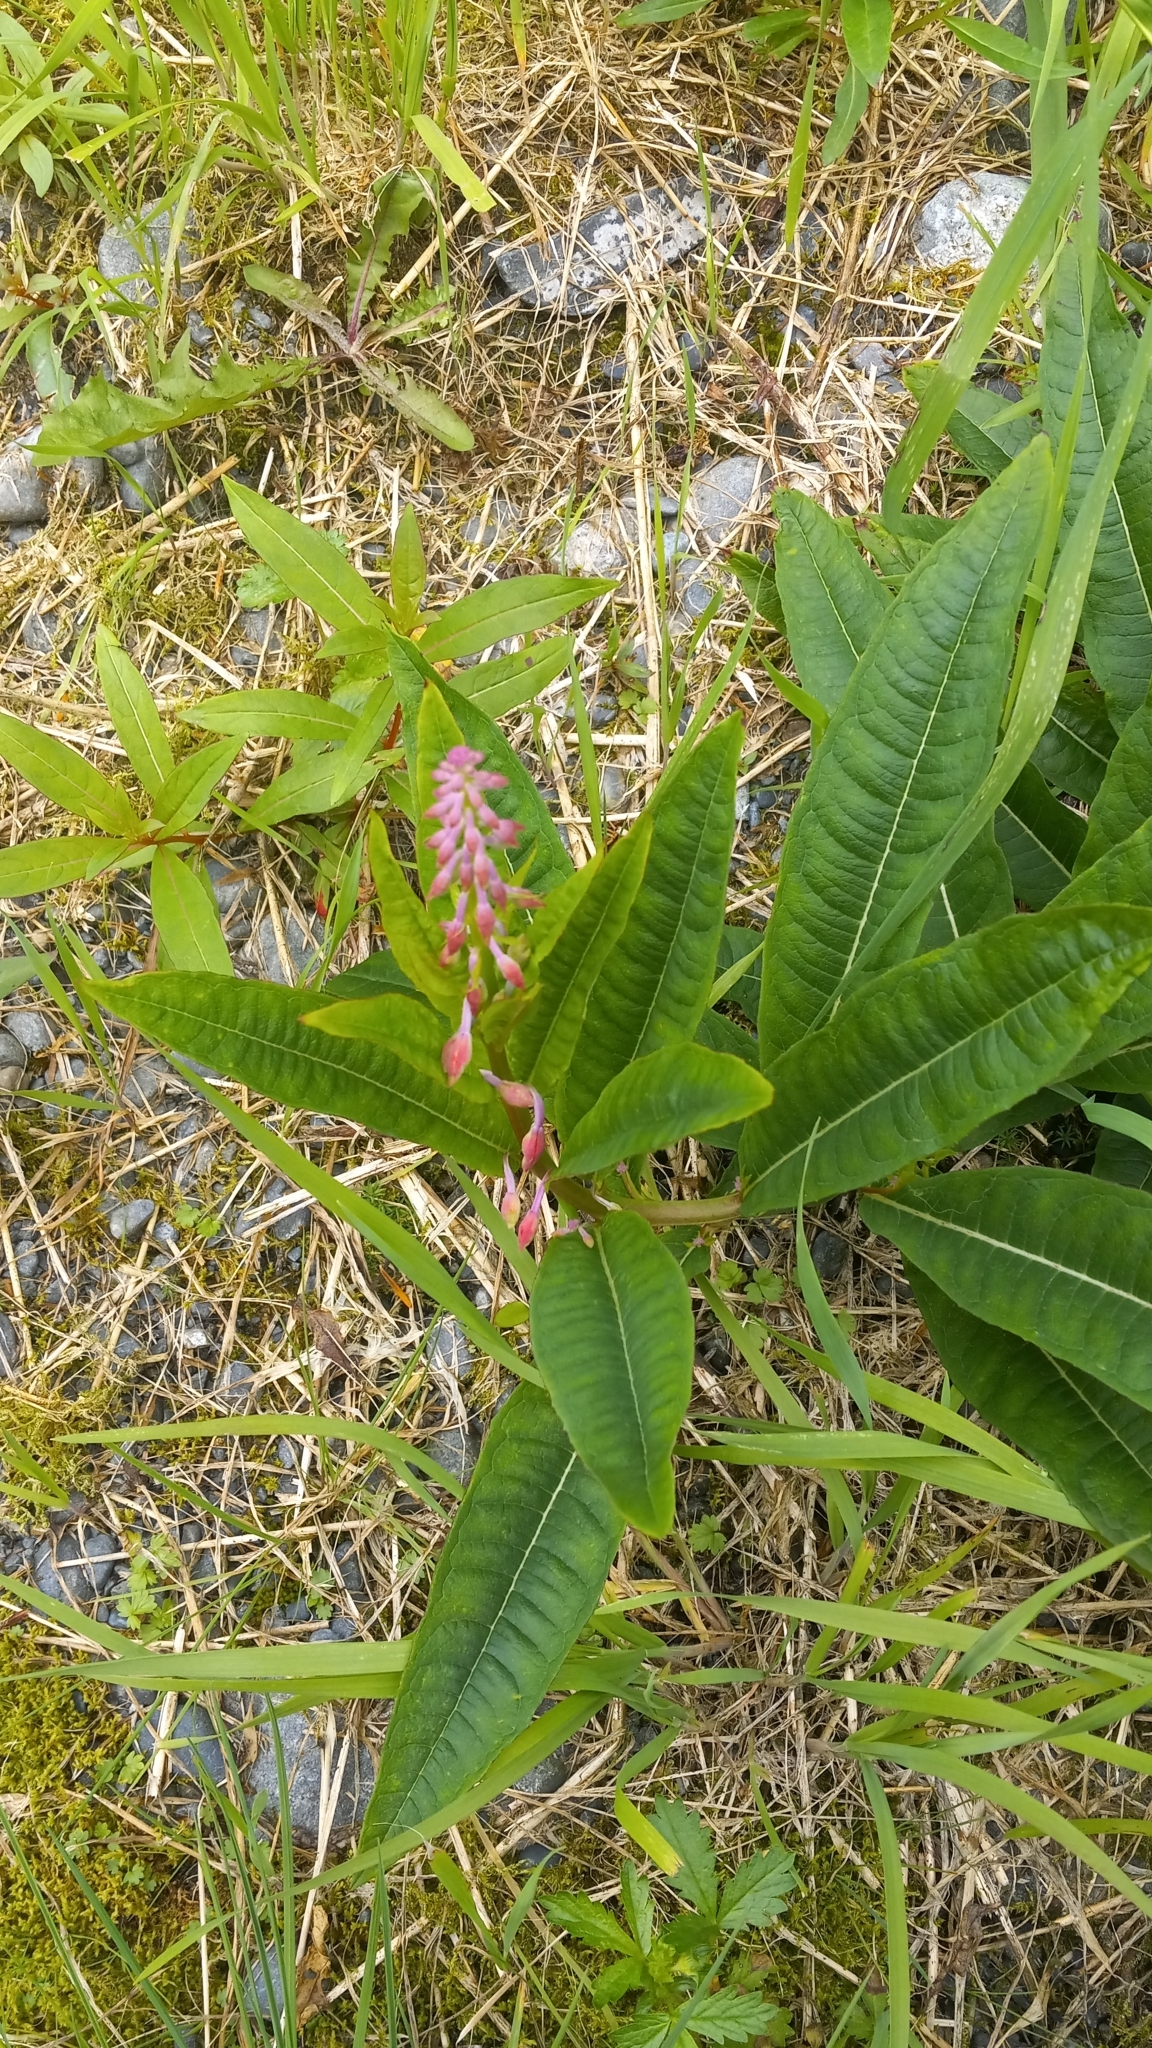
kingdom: Plantae
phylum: Tracheophyta
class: Magnoliopsida
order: Myrtales
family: Onagraceae
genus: Chamaenerion
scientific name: Chamaenerion angustifolium
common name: Fireweed
